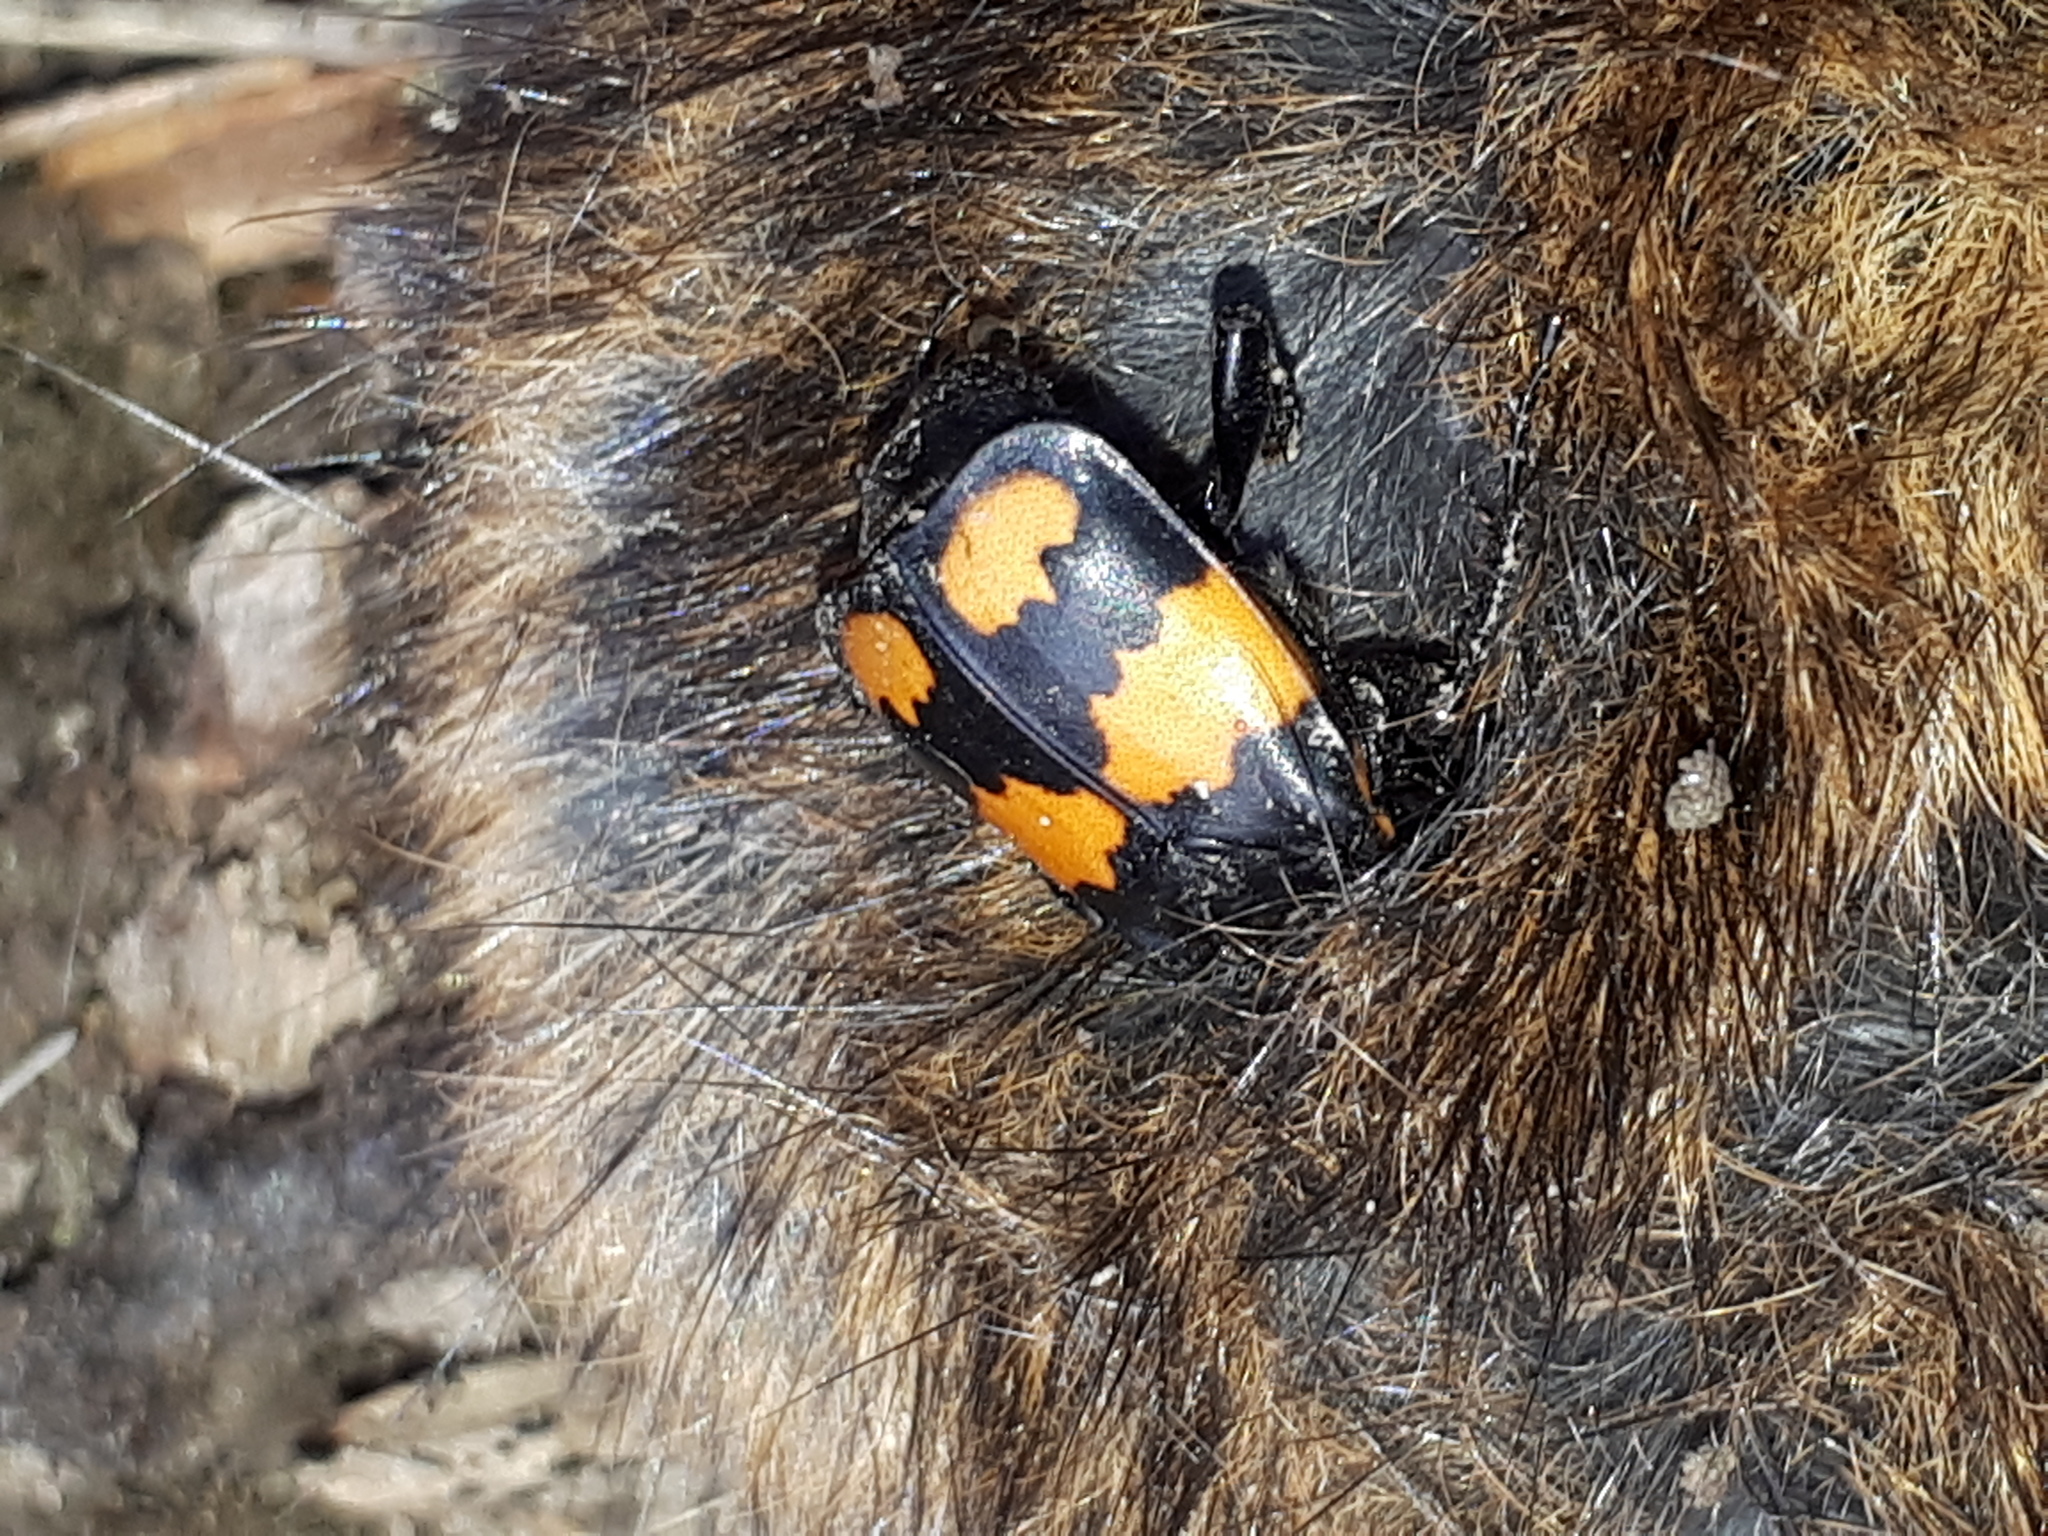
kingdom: Animalia
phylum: Arthropoda
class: Insecta
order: Coleoptera
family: Staphylinidae
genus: Nicrophorus
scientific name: Nicrophorus vespilloides
